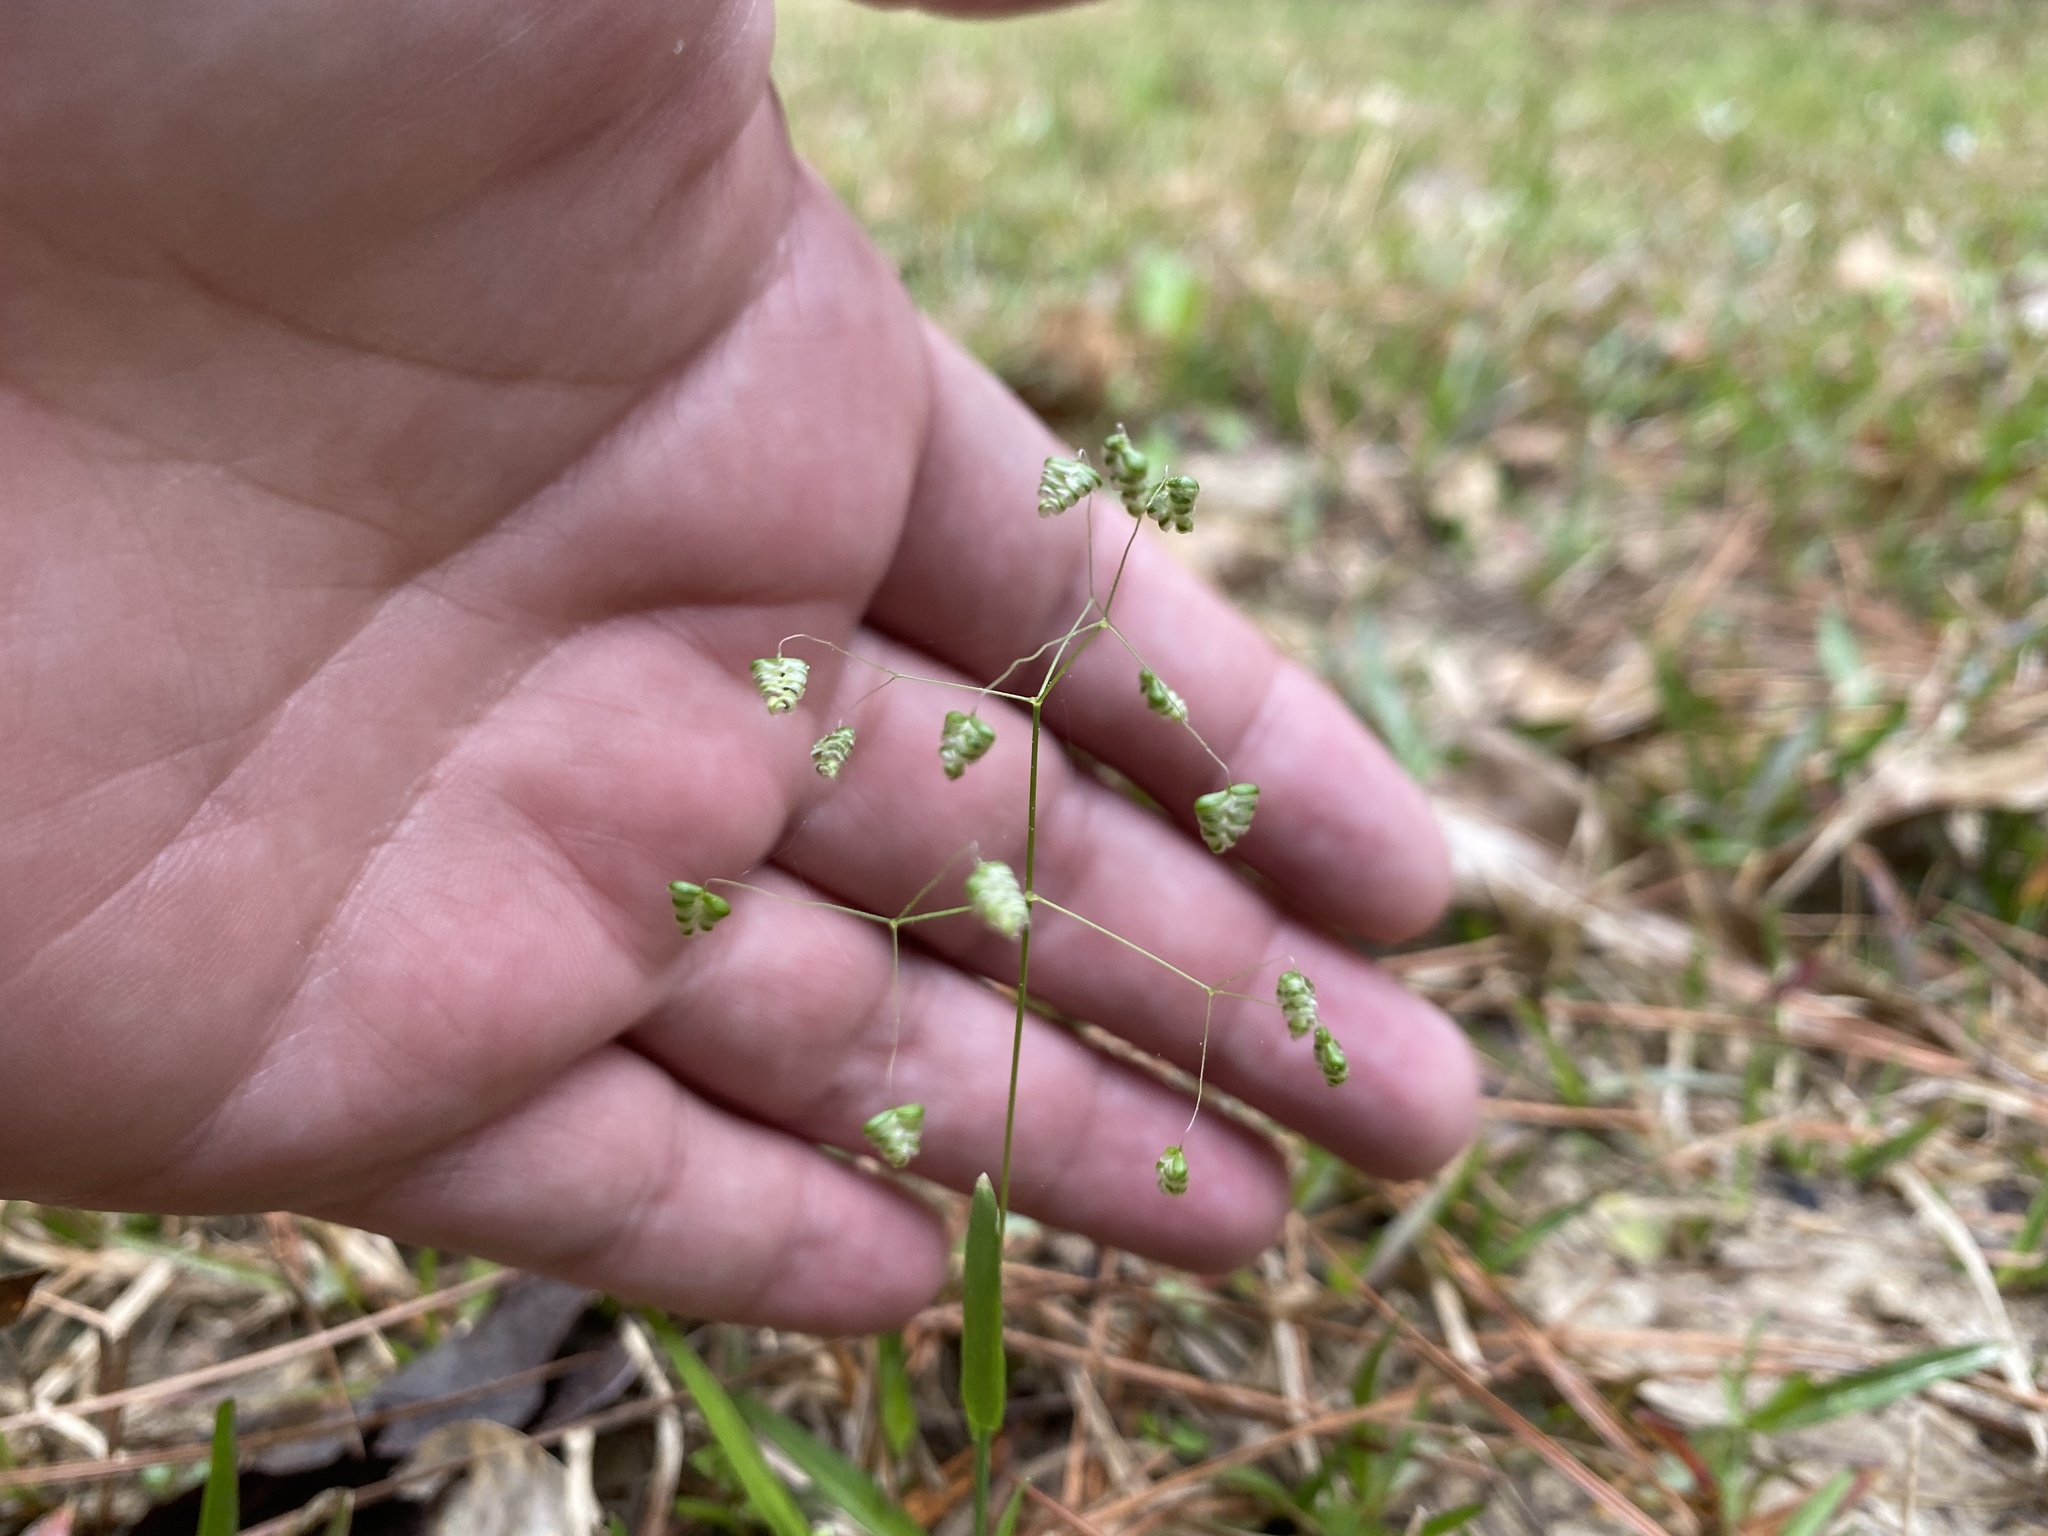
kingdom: Plantae
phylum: Tracheophyta
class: Liliopsida
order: Poales
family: Poaceae
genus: Briza
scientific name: Briza minor
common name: Lesser quaking-grass
